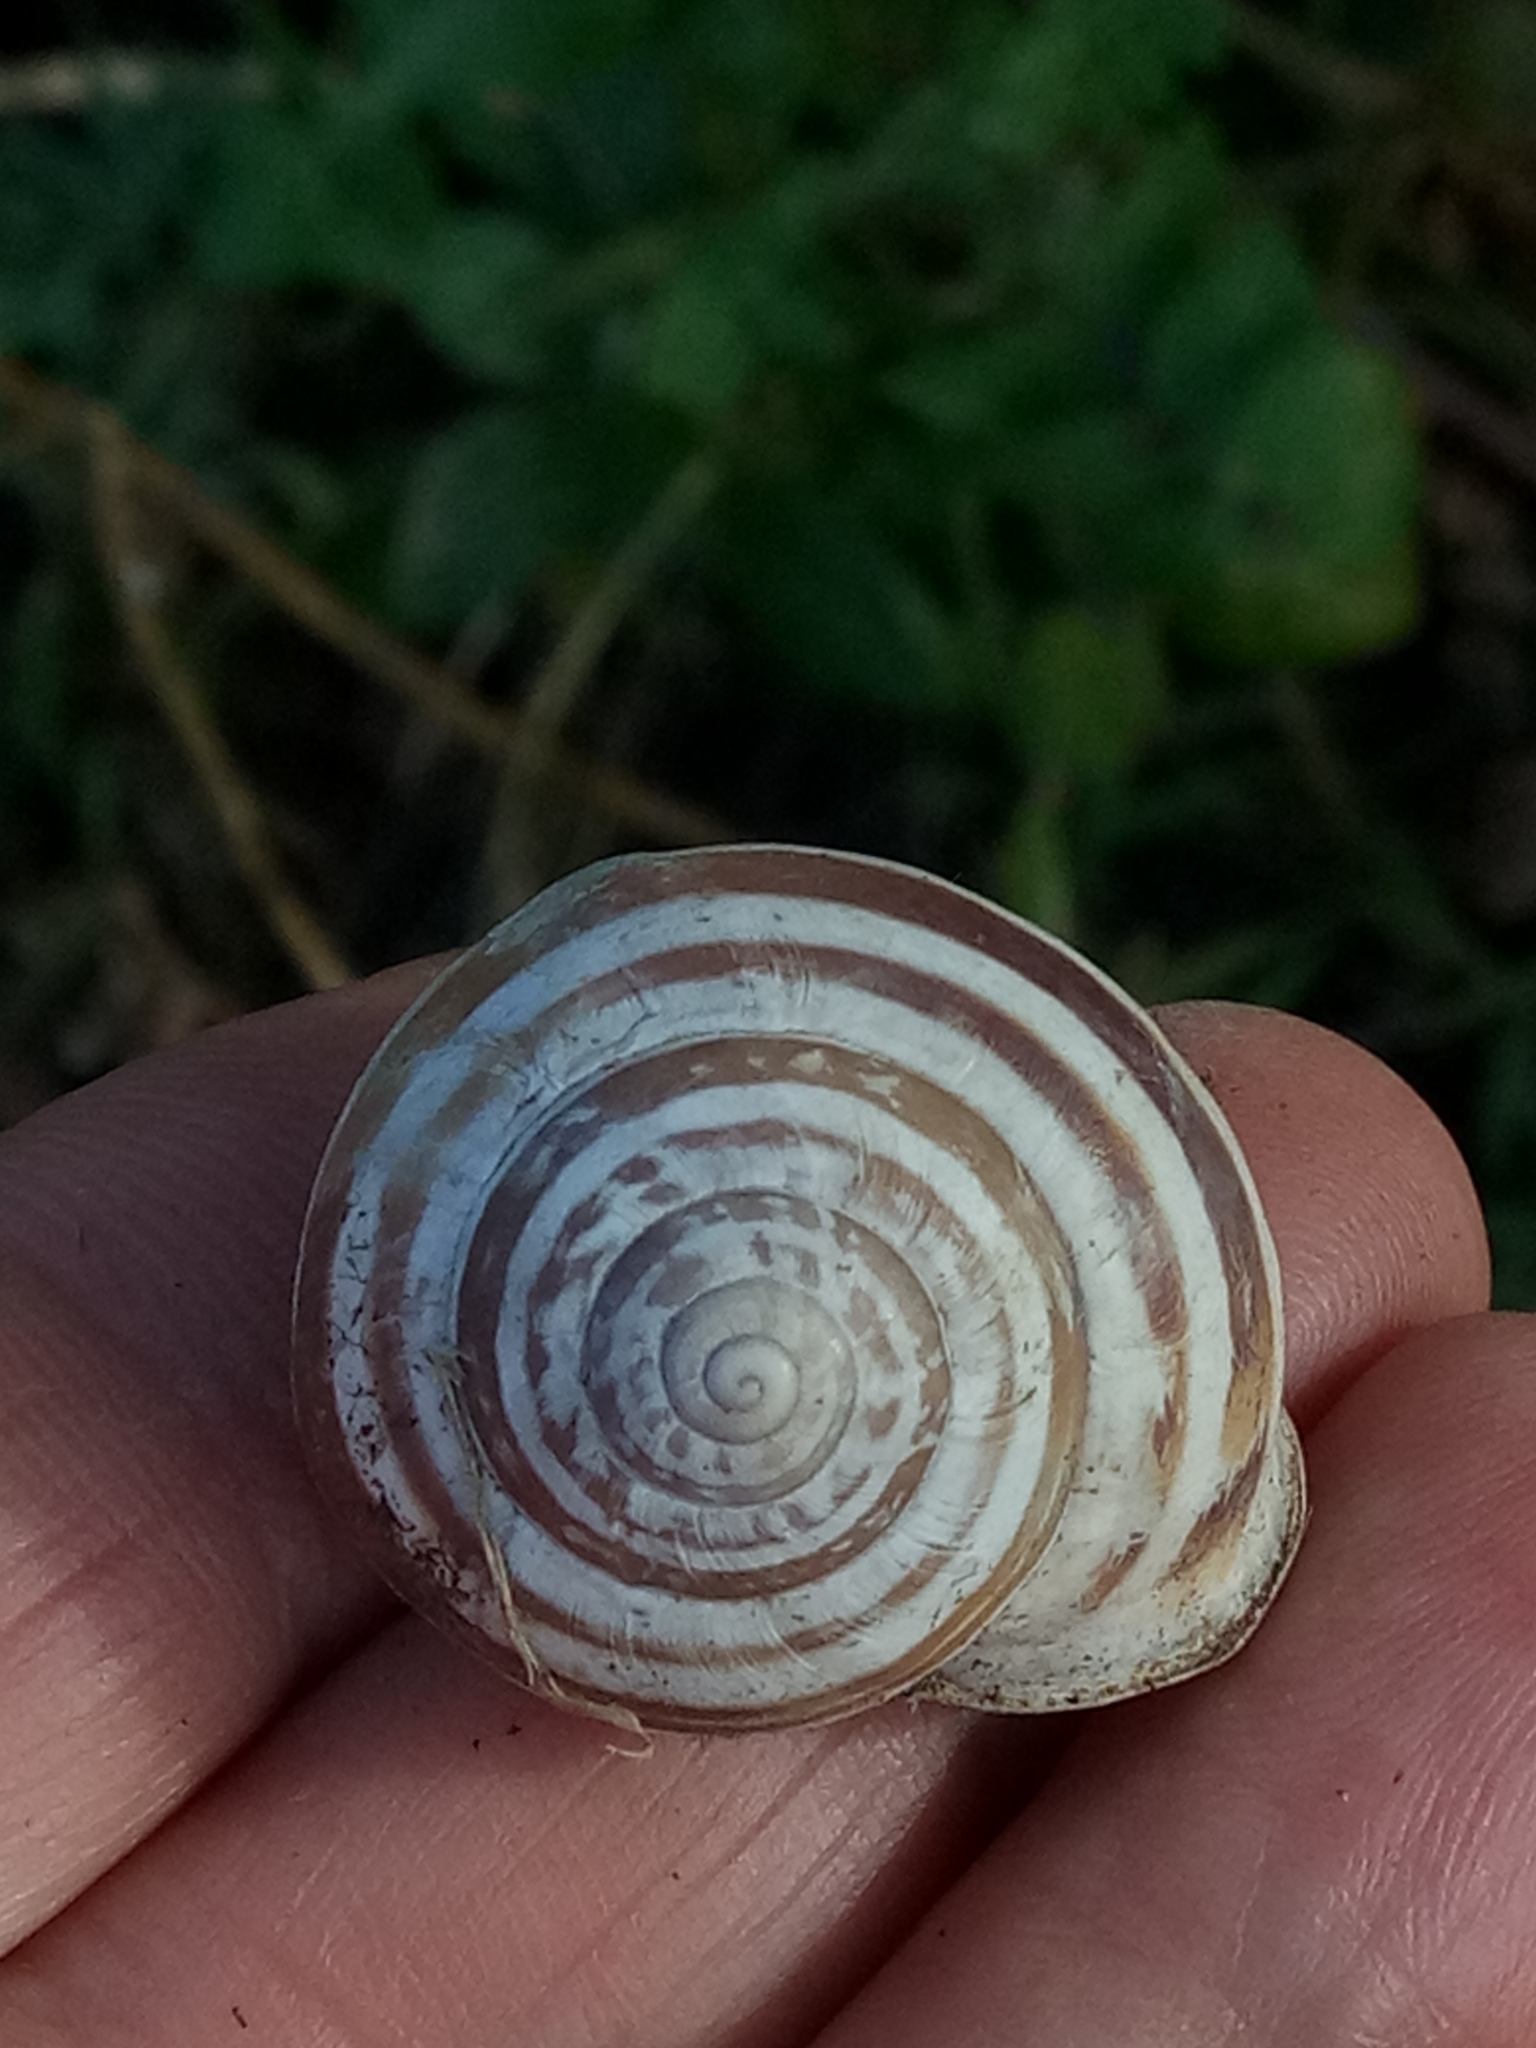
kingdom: Animalia
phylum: Mollusca
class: Gastropoda
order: Stylommatophora
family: Helicidae
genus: Eobania
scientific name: Eobania vermiculata
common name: Chocolateband snail
